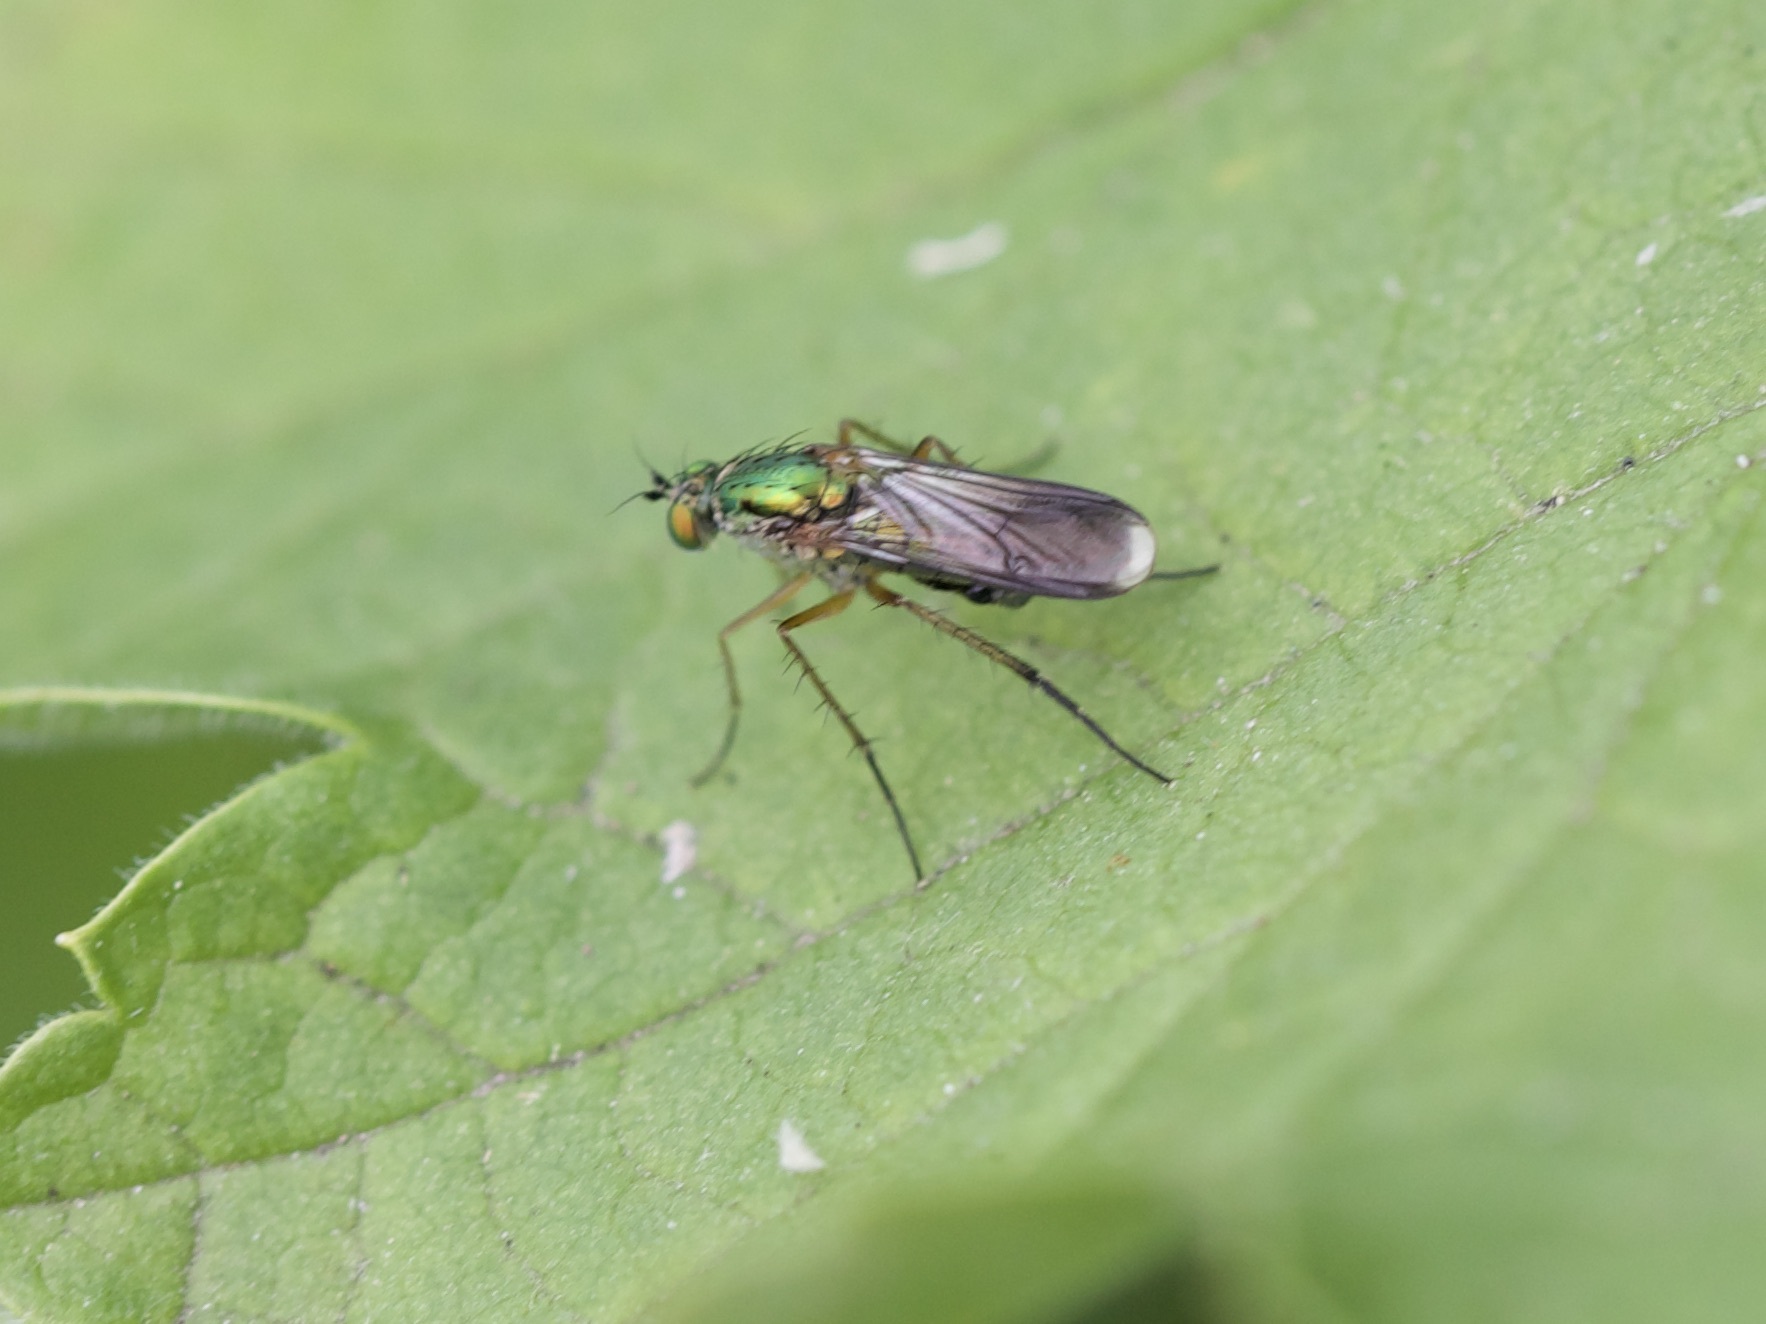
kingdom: Animalia
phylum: Arthropoda
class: Insecta
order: Diptera
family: Dolichopodidae
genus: Poecilobothrus
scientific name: Poecilobothrus nobilitatus
